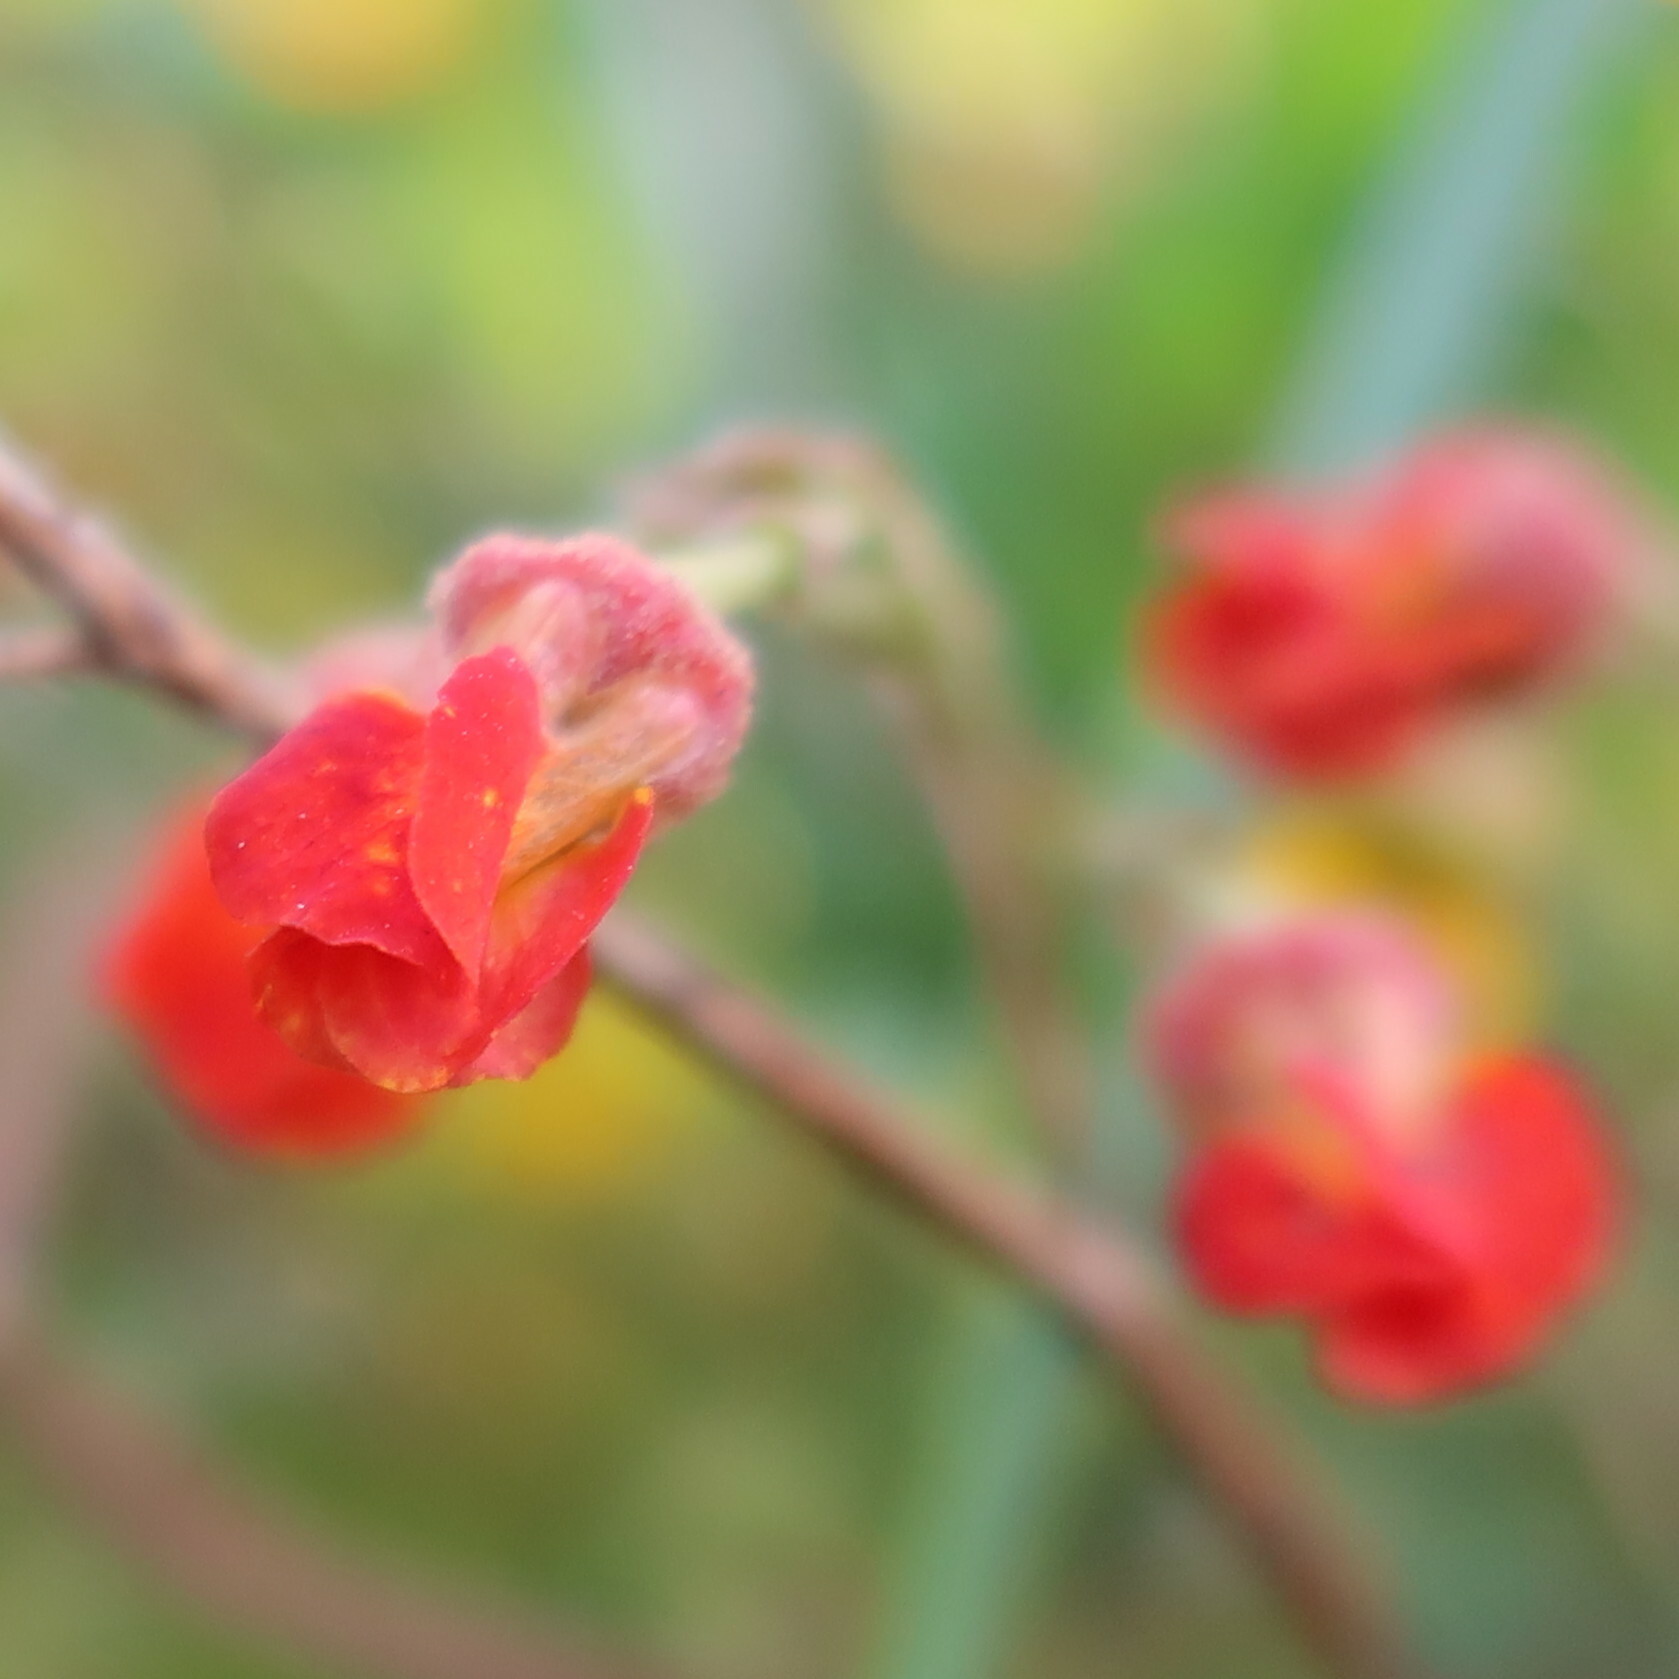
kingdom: Plantae
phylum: Tracheophyta
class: Magnoliopsida
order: Malvales
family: Malvaceae
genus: Hermannia
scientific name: Hermannia multiflora
